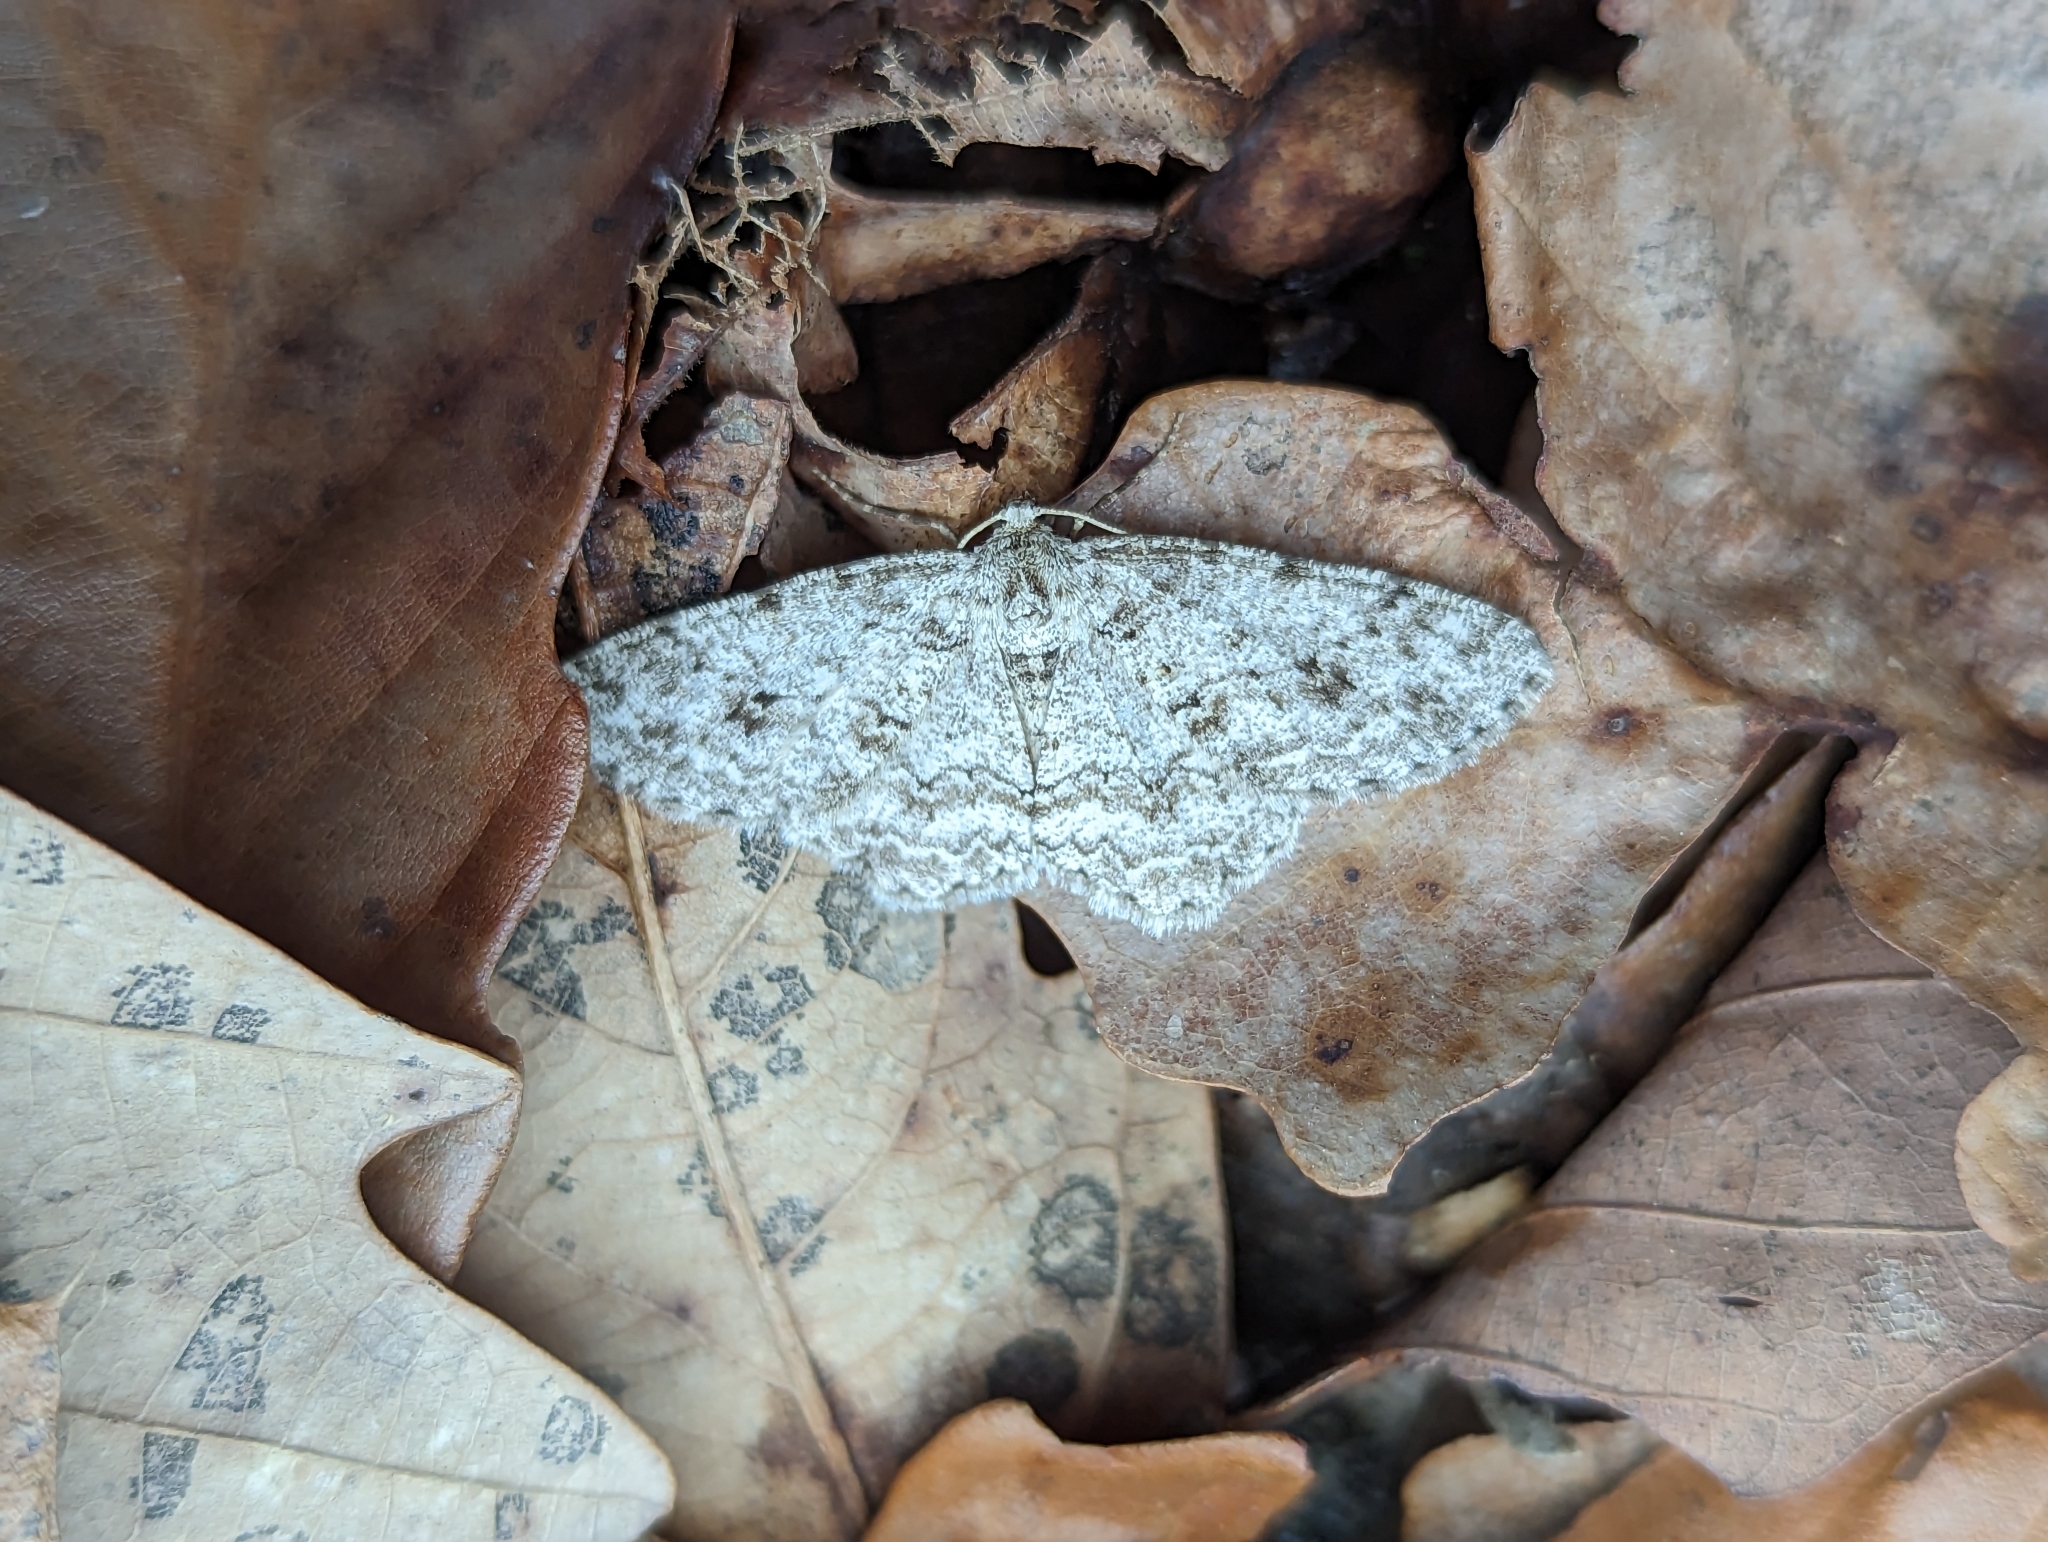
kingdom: Animalia
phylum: Arthropoda
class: Insecta
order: Lepidoptera
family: Geometridae
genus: Ectropis
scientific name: Ectropis crepuscularia
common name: Engrailed
